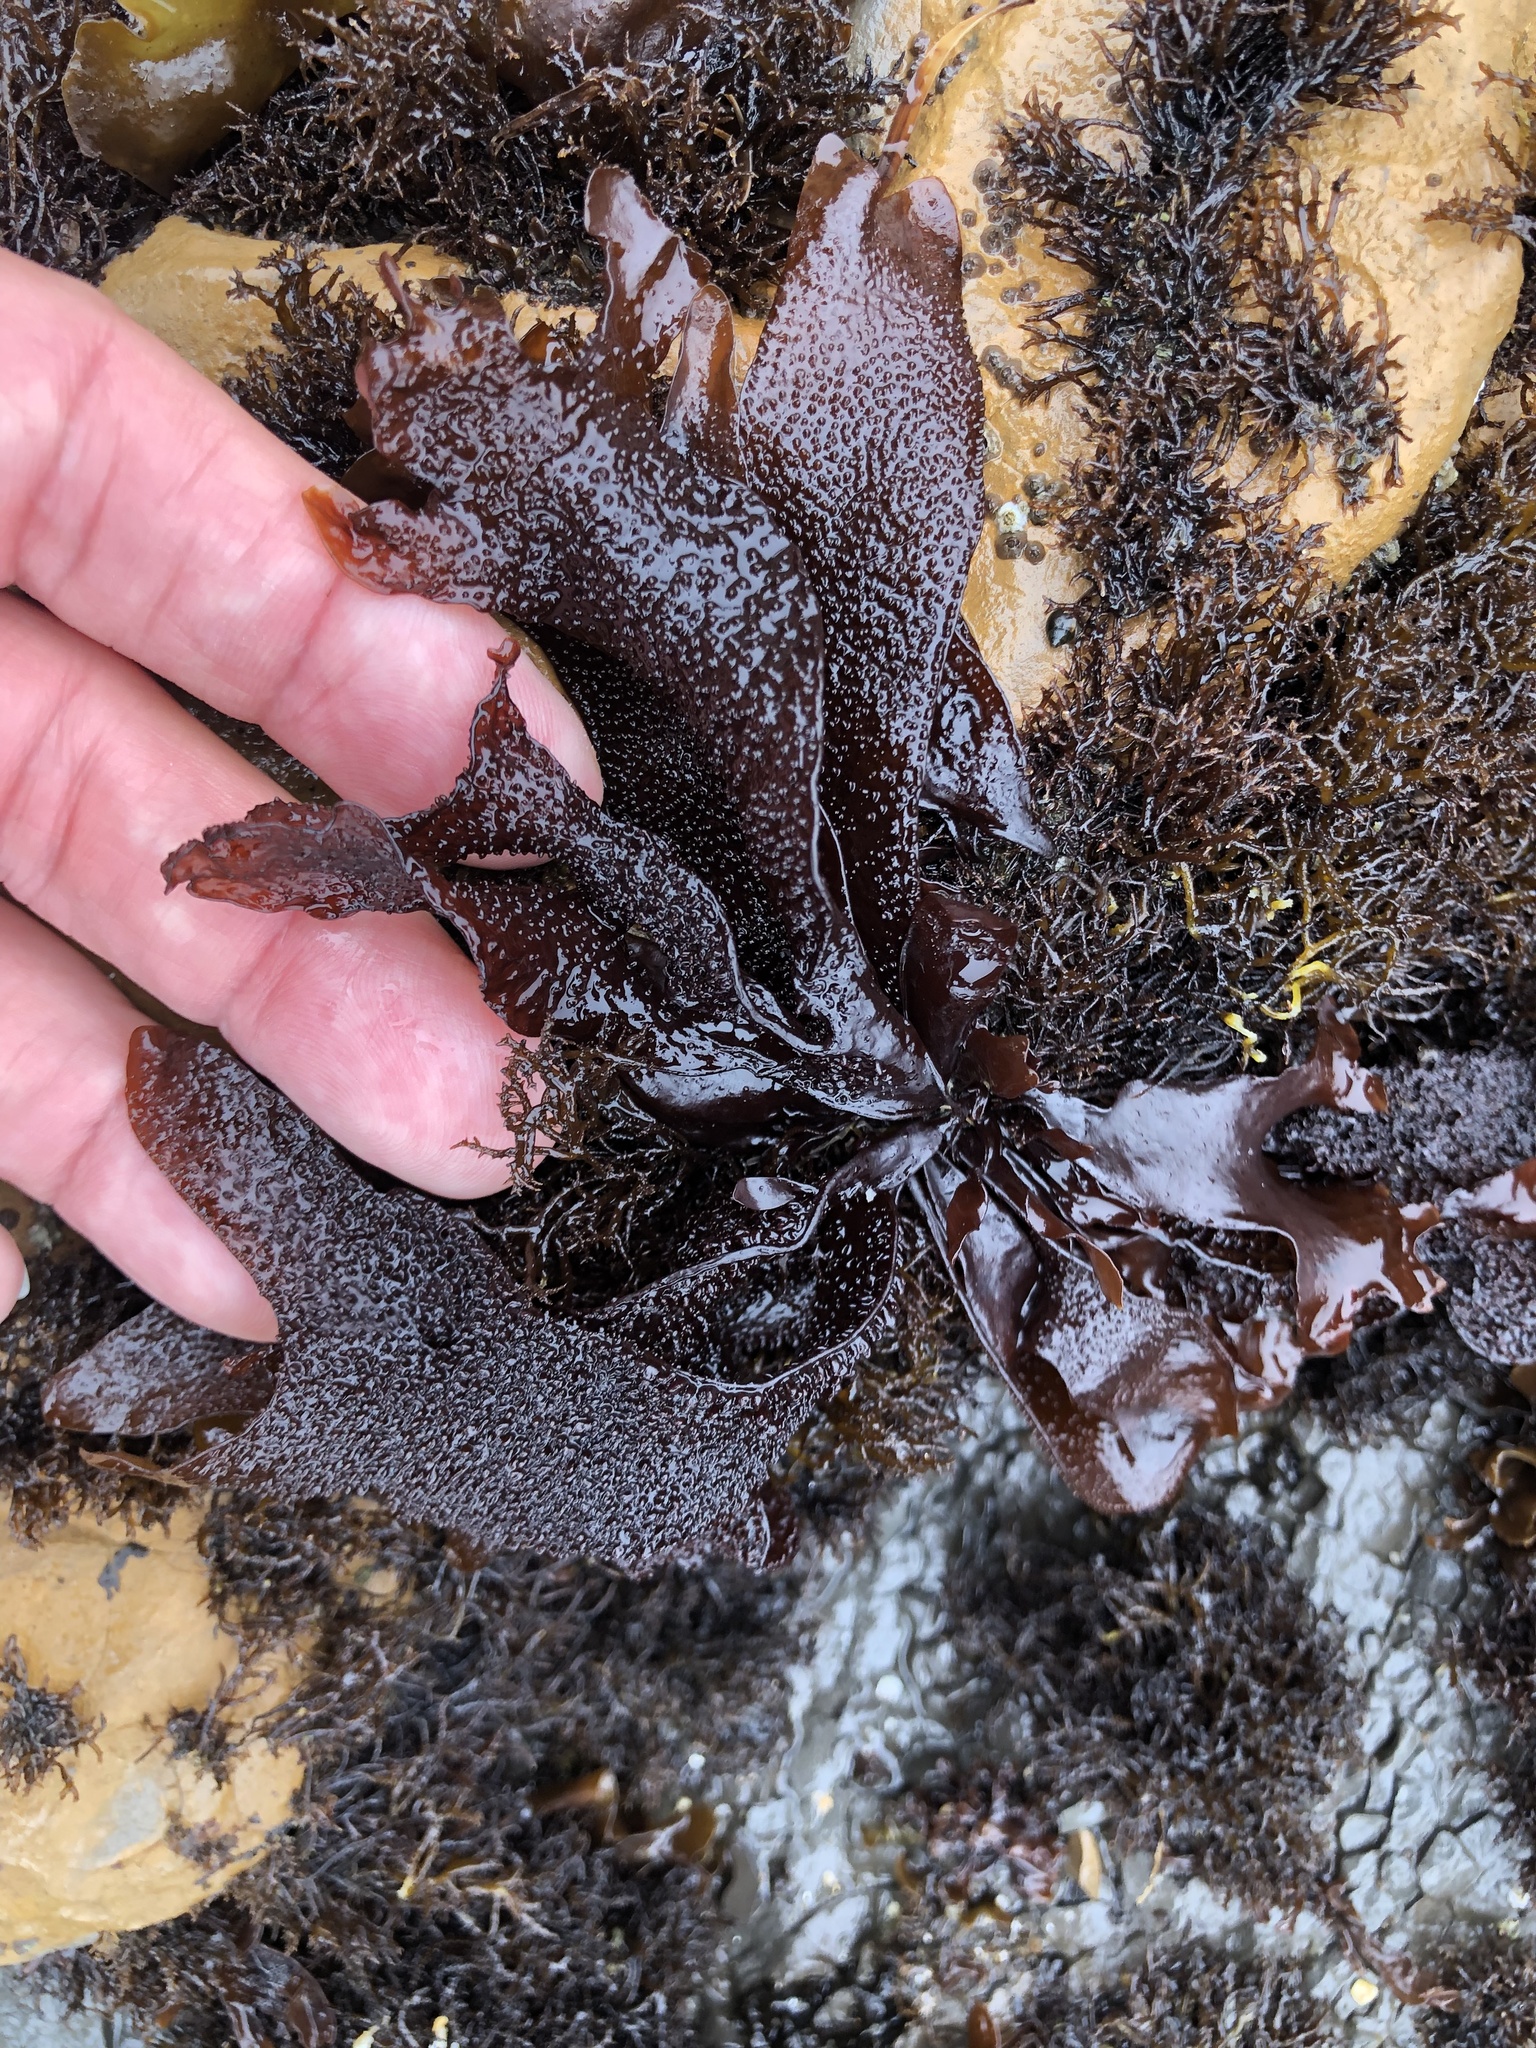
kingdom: Plantae
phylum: Rhodophyta
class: Florideophyceae
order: Gigartinales
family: Phyllophoraceae
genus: Mastocarpus
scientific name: Mastocarpus papillatus
